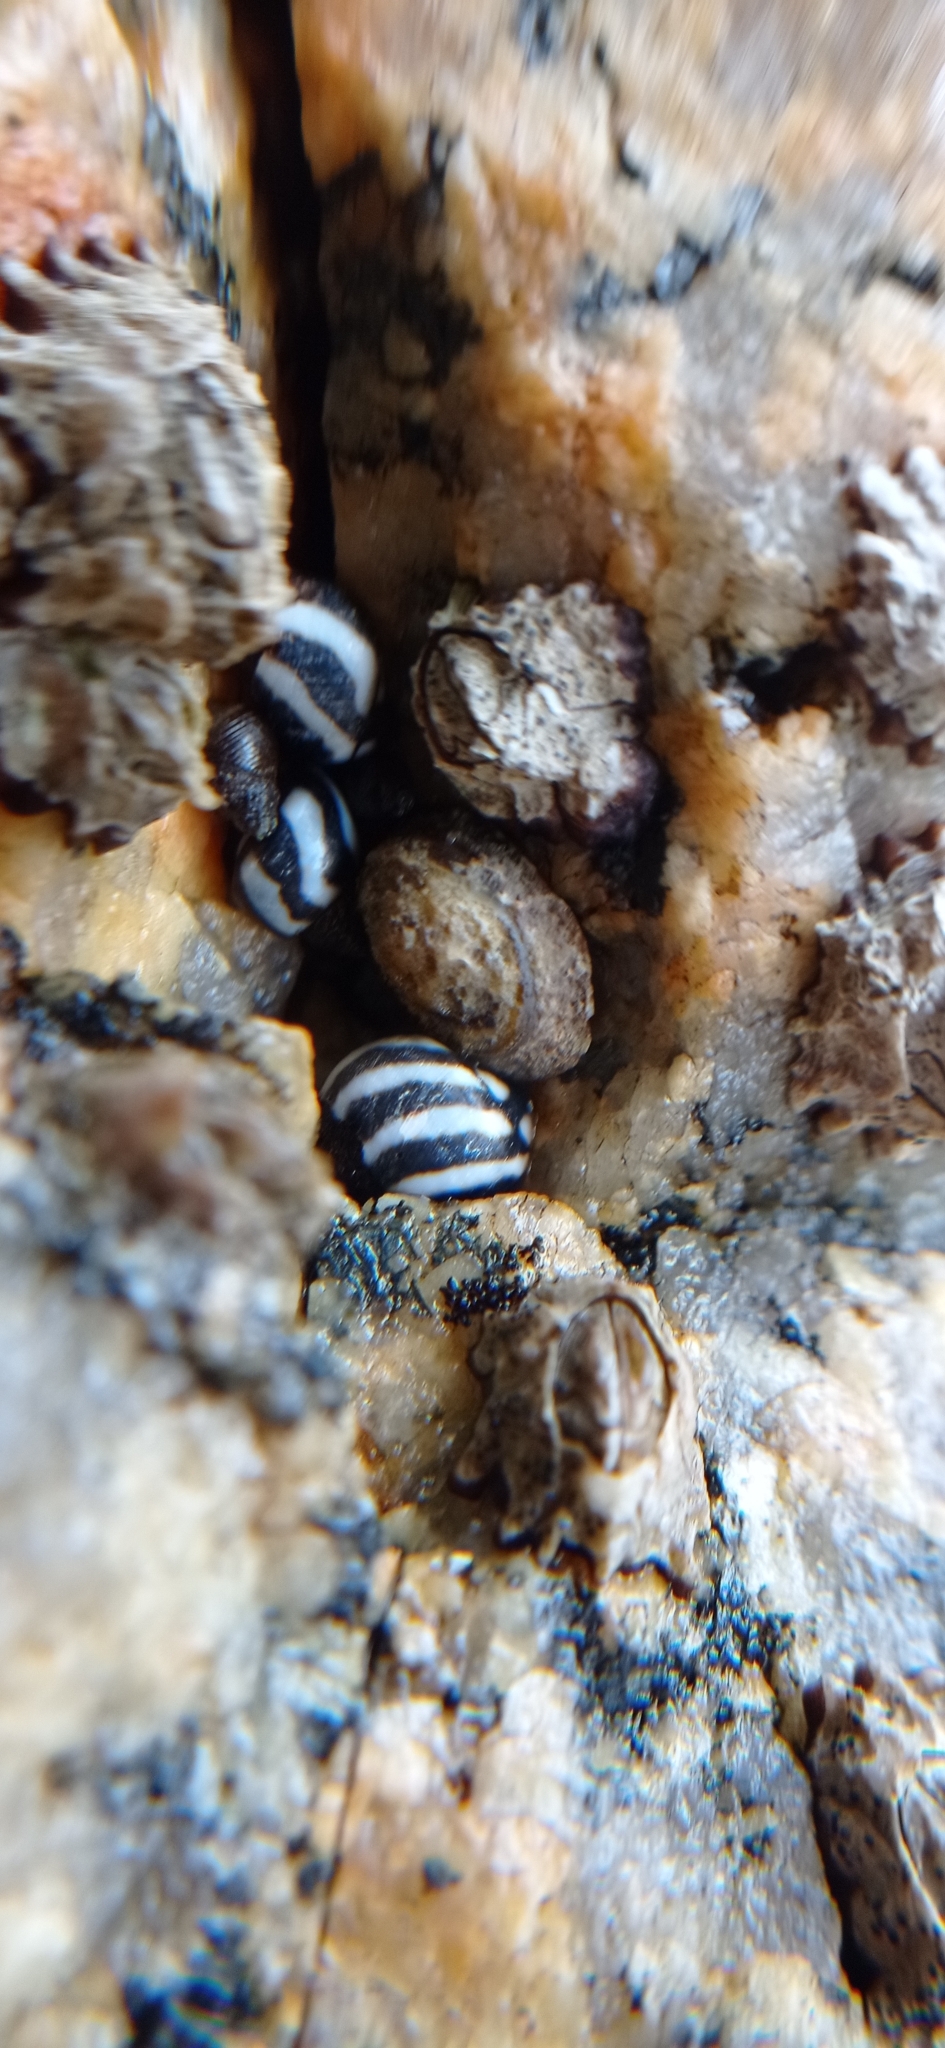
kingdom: Animalia
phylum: Mollusca
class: Gastropoda
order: Littorinimorpha
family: Littorinidae
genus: Echinolittorina
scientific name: Echinolittorina peruviana
